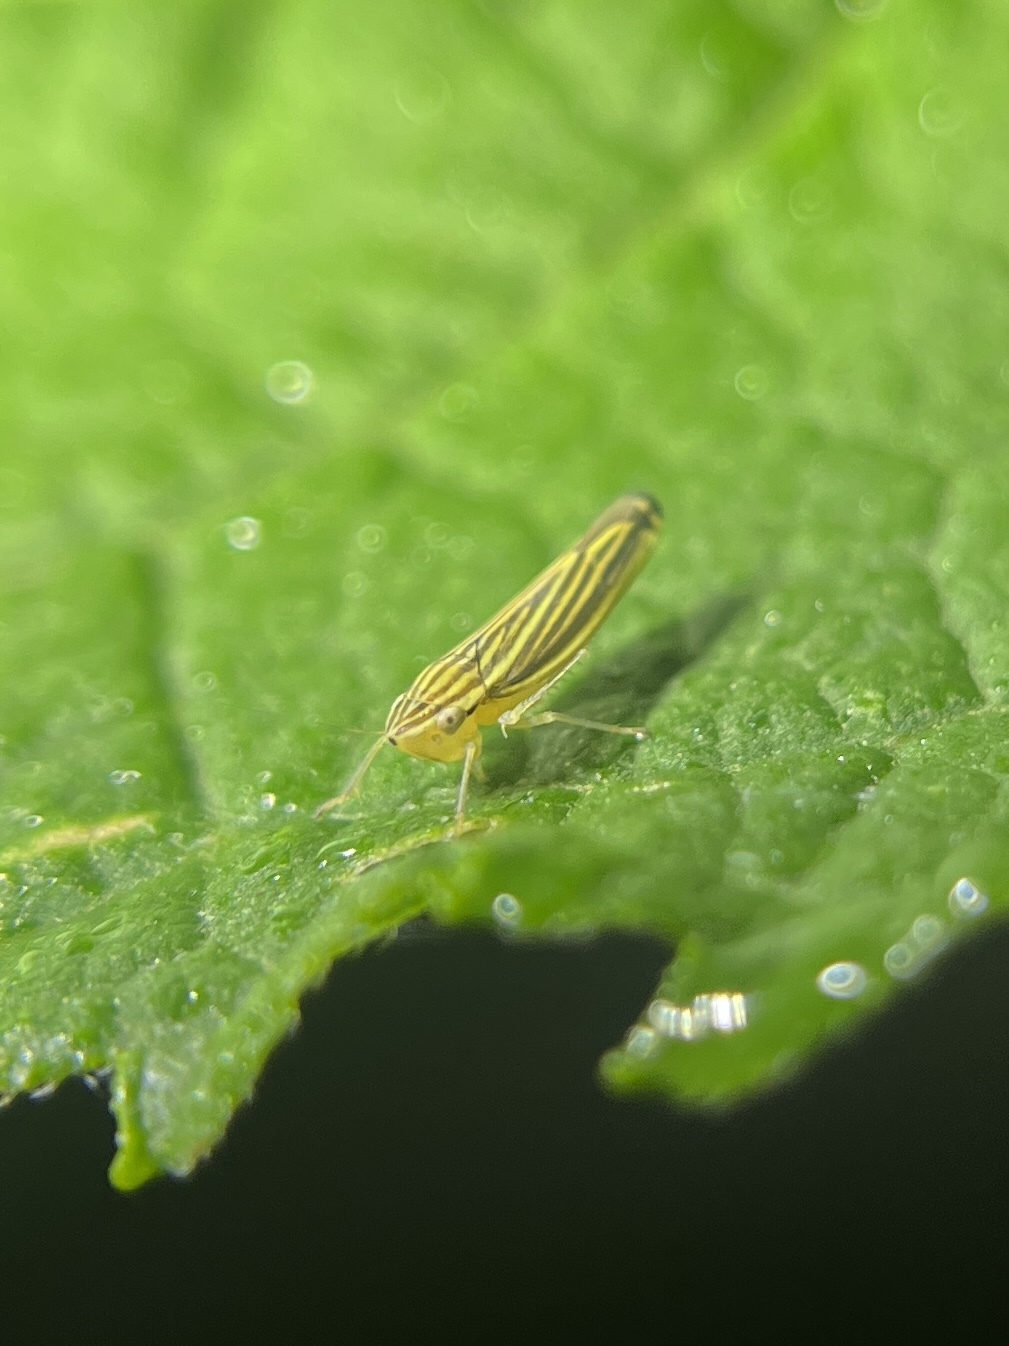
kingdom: Animalia
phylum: Arthropoda
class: Insecta
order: Hemiptera
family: Cicadellidae
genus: Sibovia
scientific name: Sibovia occatoria
